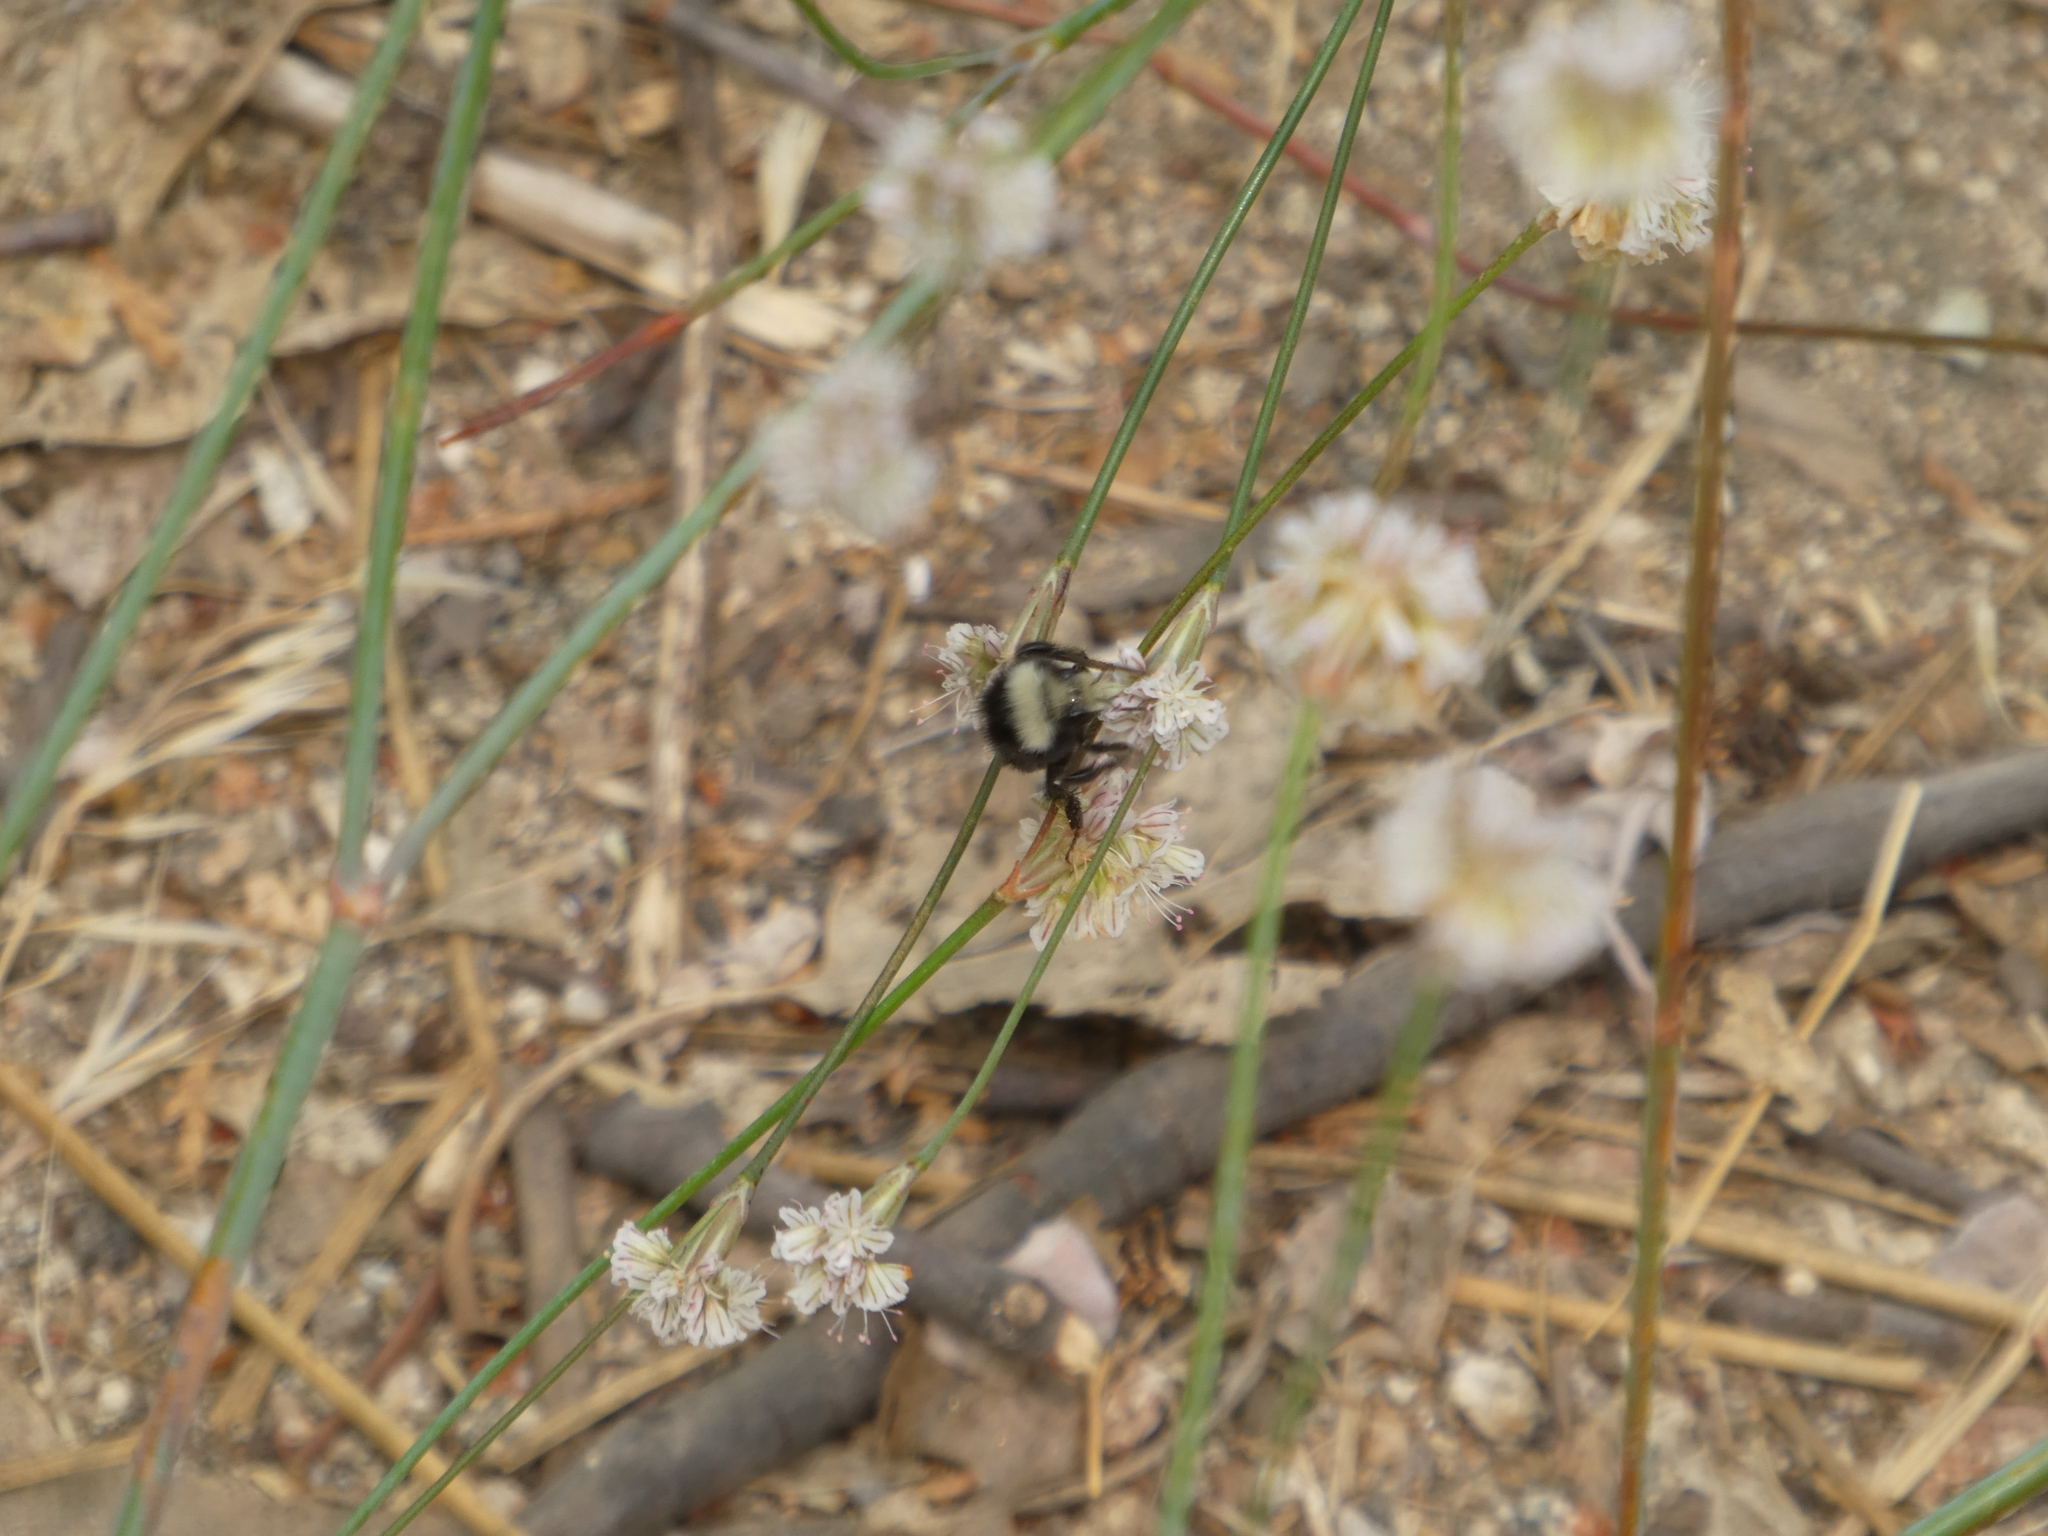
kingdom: Animalia
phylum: Arthropoda
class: Insecta
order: Hymenoptera
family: Apidae
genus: Bombus
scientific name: Bombus vosnesenskii
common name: Vosnesensky bumble bee
